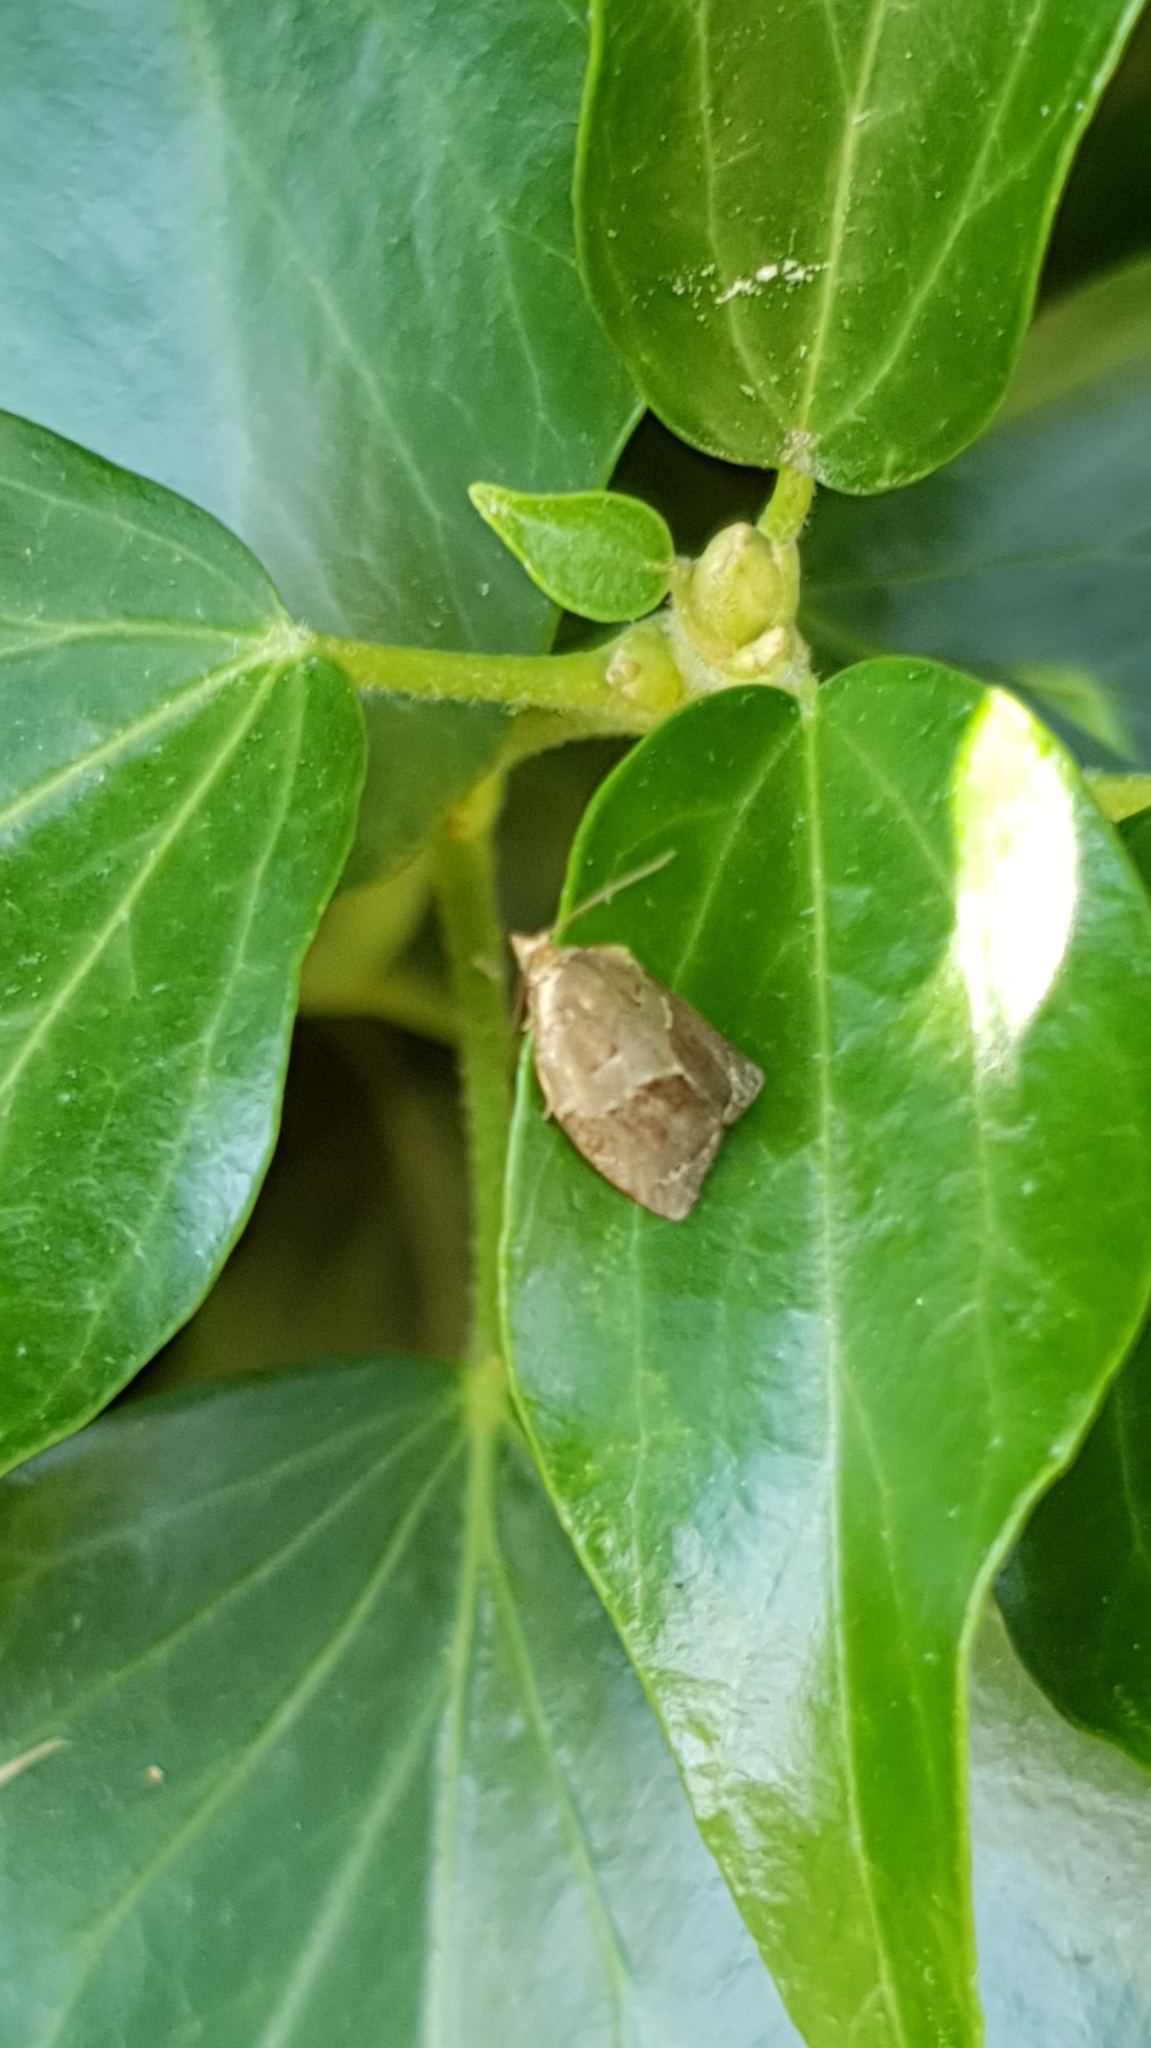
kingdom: Animalia
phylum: Arthropoda
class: Insecta
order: Lepidoptera
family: Tortricidae
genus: Clepsis
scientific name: Clepsis dumicolana
